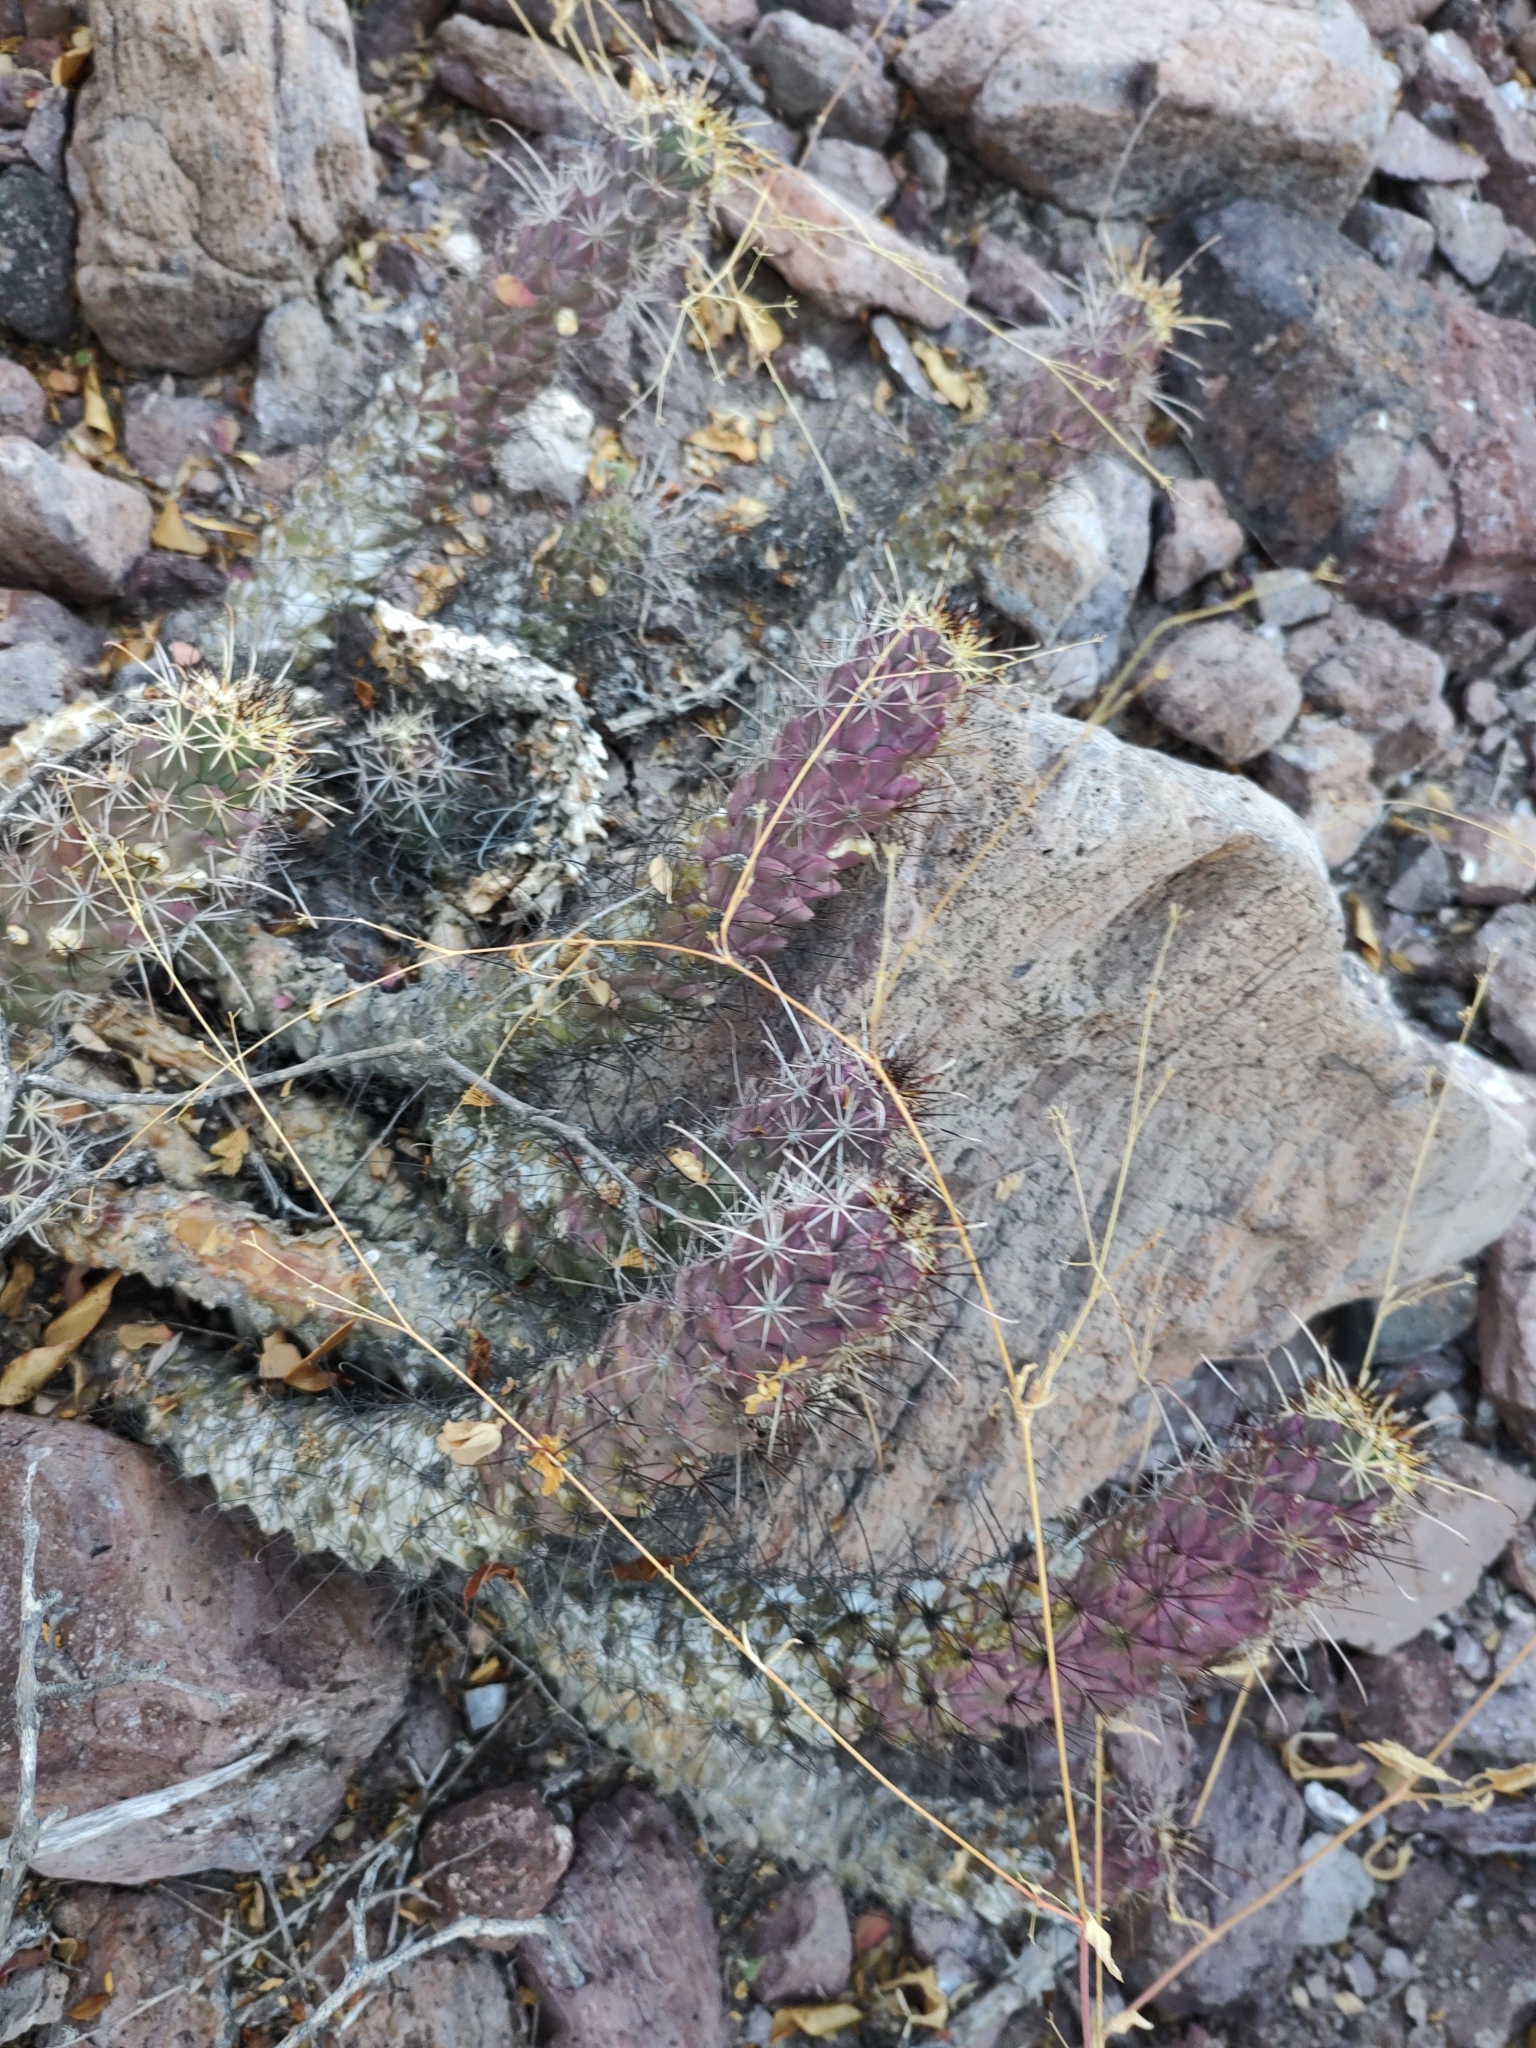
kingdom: Plantae
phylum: Tracheophyta
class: Magnoliopsida
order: Caryophyllales
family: Cactaceae
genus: Cochemiea
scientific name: Cochemiea poselgeri
